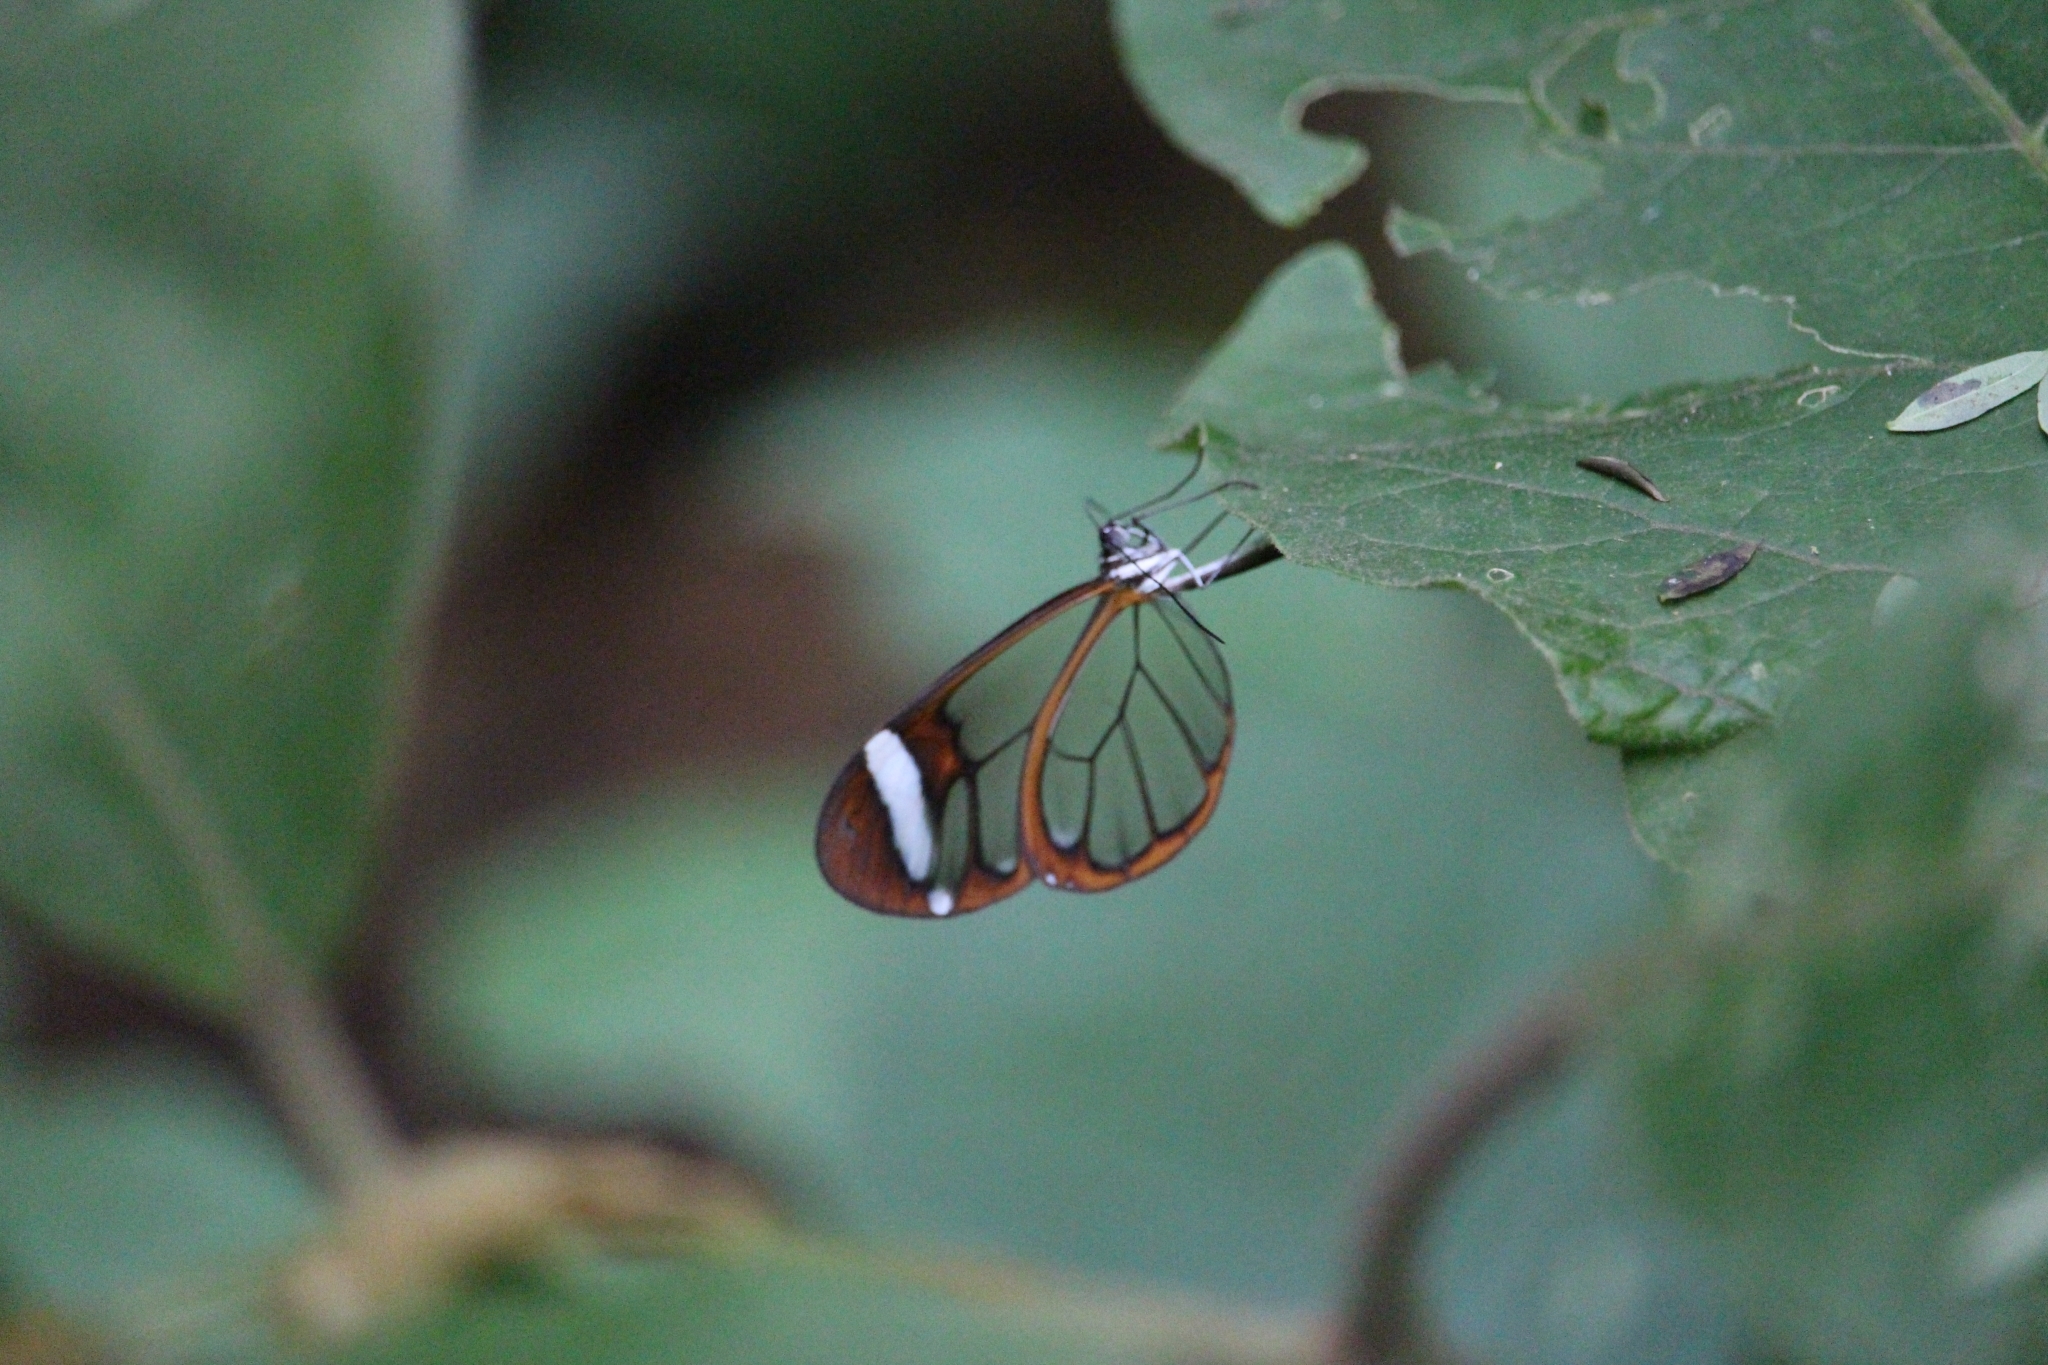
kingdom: Animalia
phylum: Arthropoda
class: Insecta
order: Lepidoptera
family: Nymphalidae
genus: Greta
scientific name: Greta morgane
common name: Thick-tipped greta
